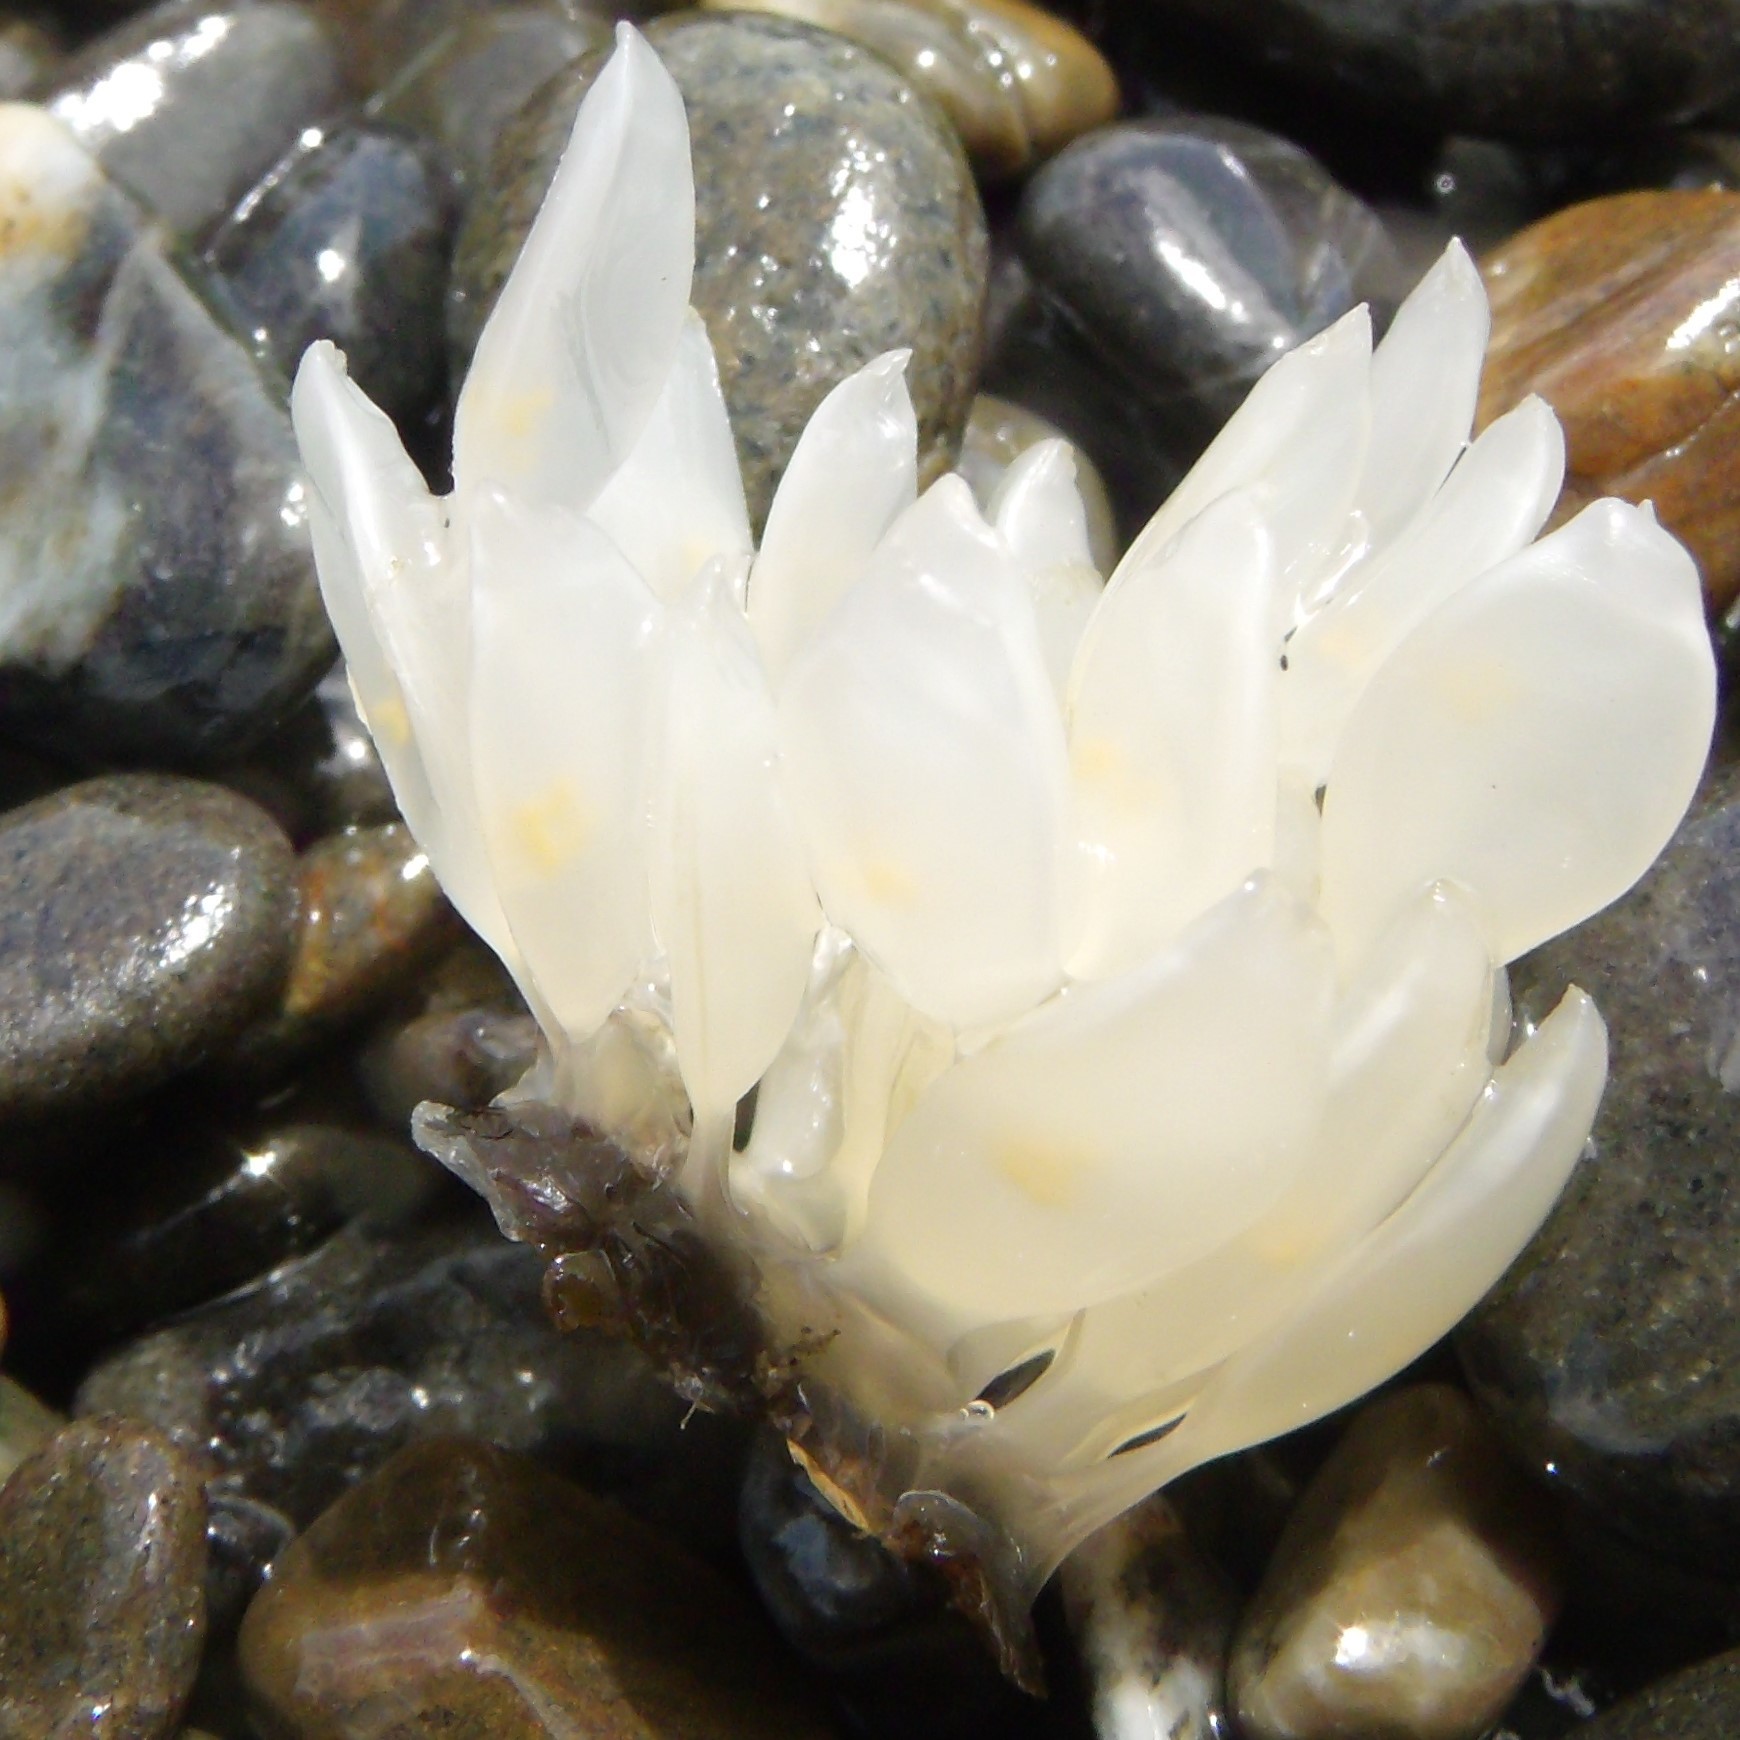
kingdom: Animalia
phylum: Mollusca
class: Gastropoda
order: Neogastropoda
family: Cominellidae
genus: Cominella
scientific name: Cominella adspersa
